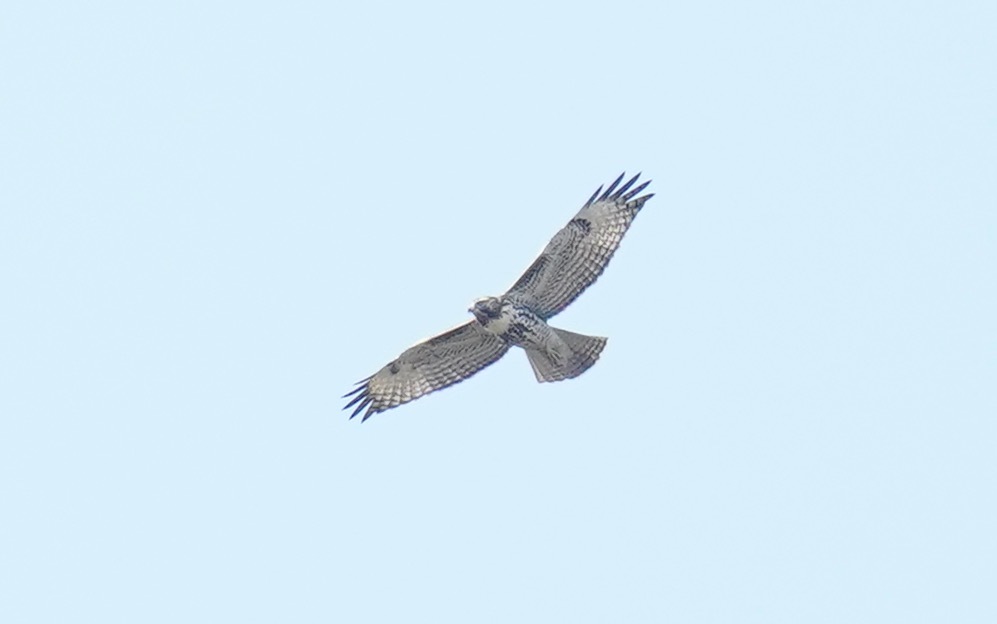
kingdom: Animalia
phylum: Chordata
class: Aves
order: Accipitriformes
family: Accipitridae
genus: Buteo
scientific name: Buteo jamaicensis
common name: Red-tailed hawk
